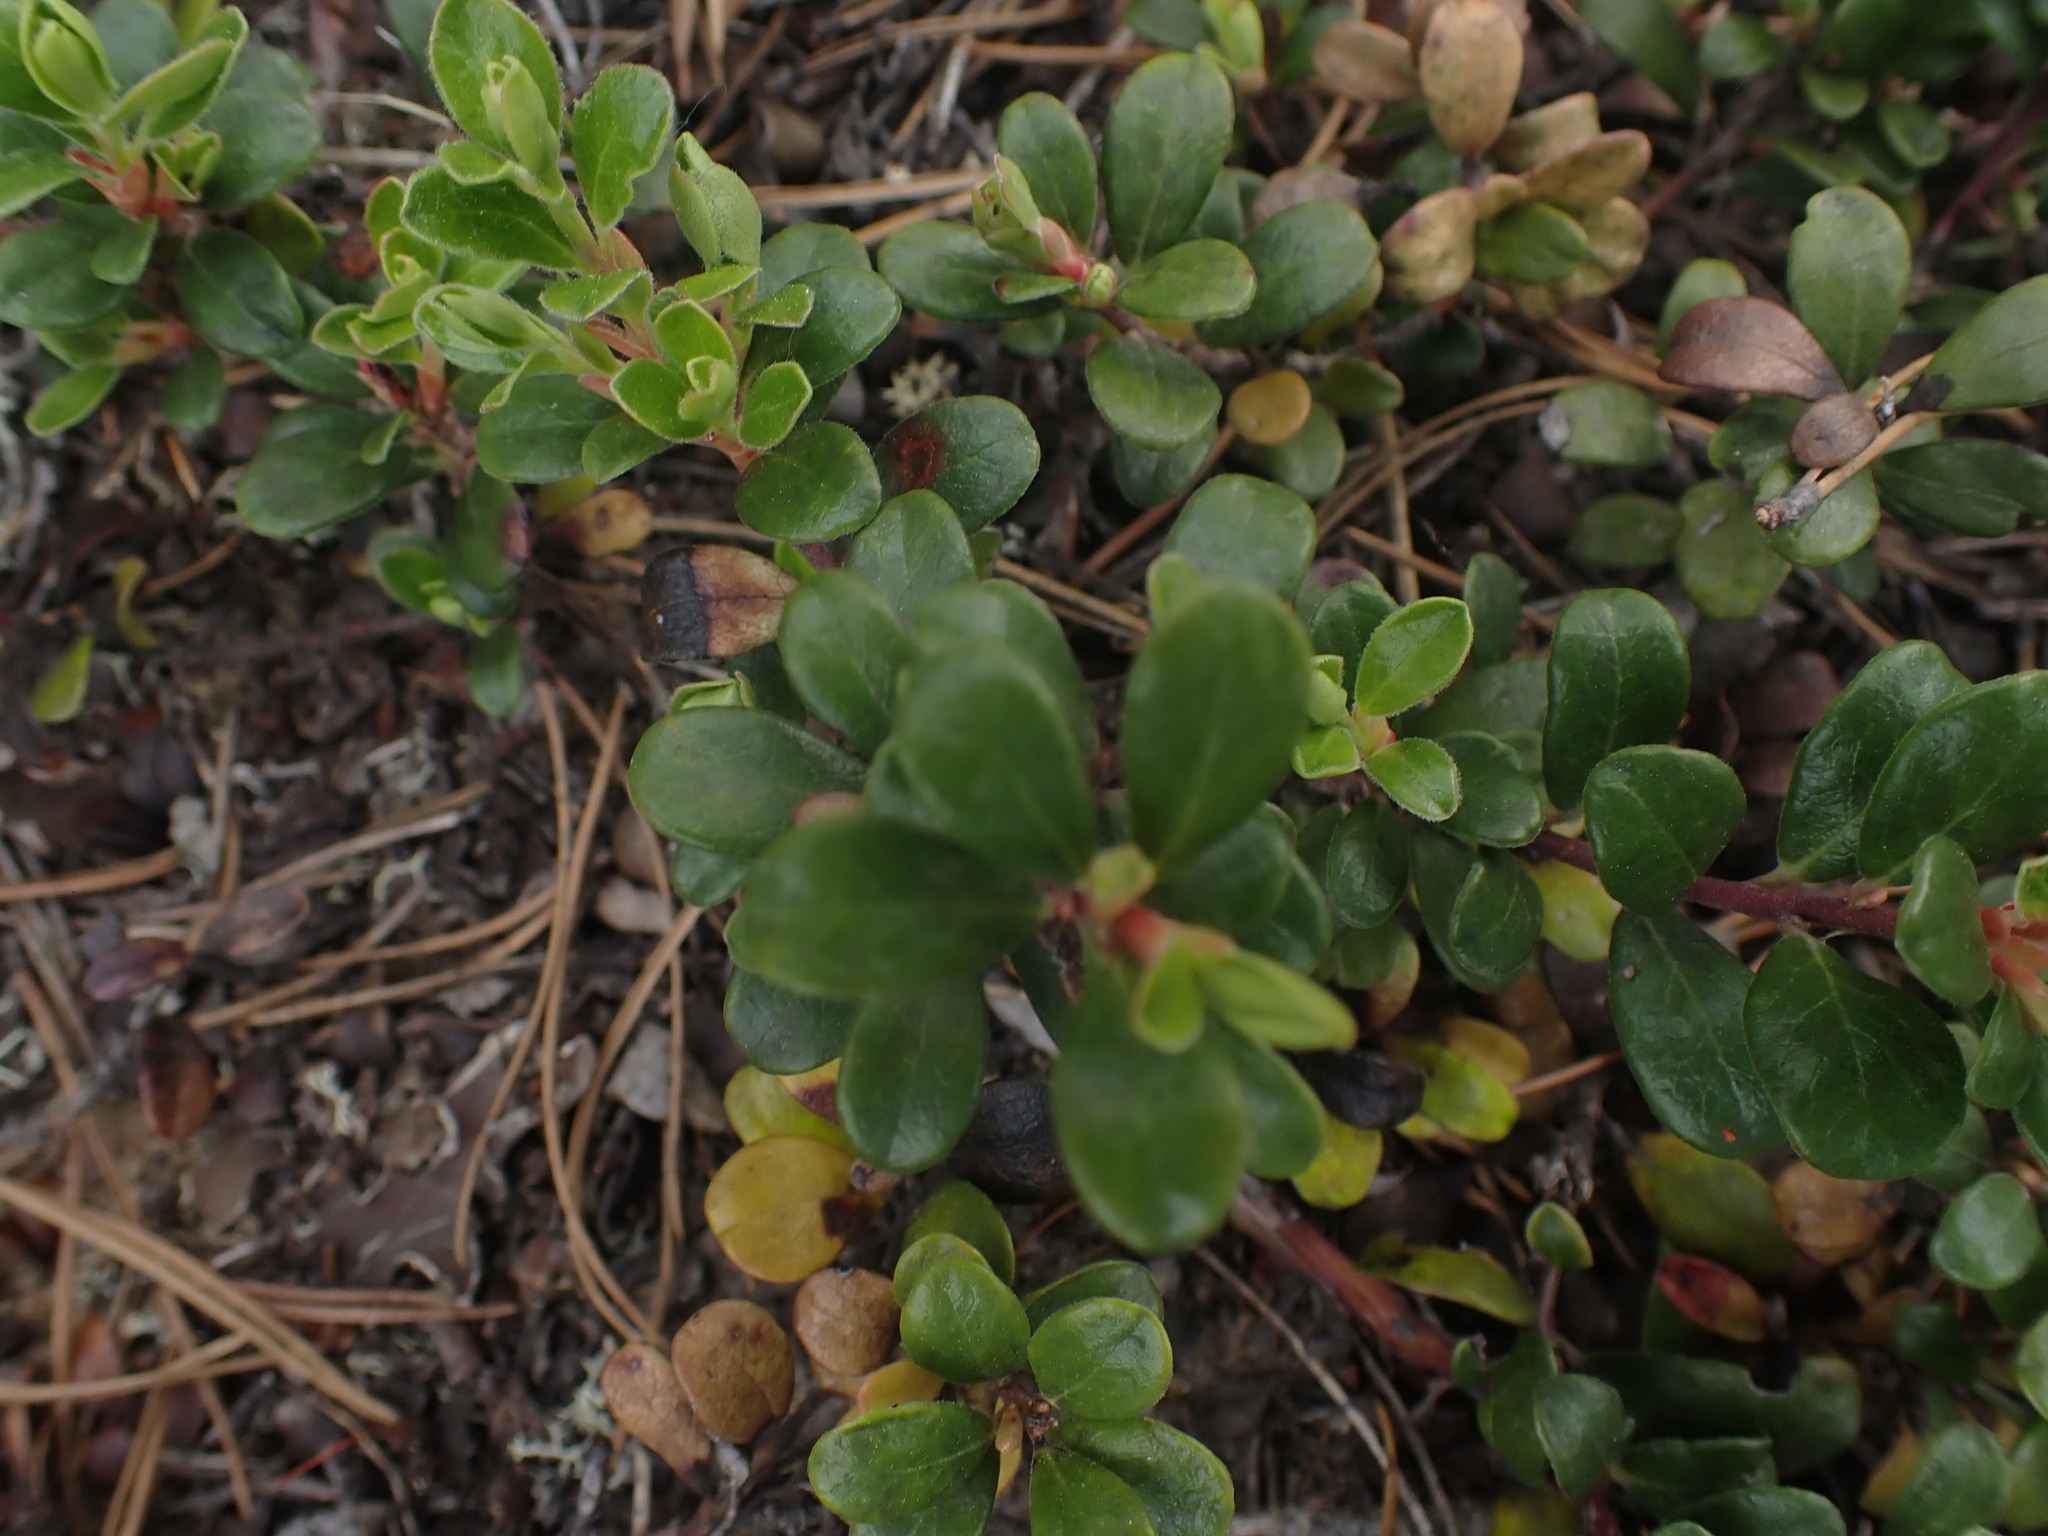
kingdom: Plantae
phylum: Tracheophyta
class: Magnoliopsida
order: Ericales
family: Ericaceae
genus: Arctostaphylos
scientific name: Arctostaphylos uva-ursi
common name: Bearberry
